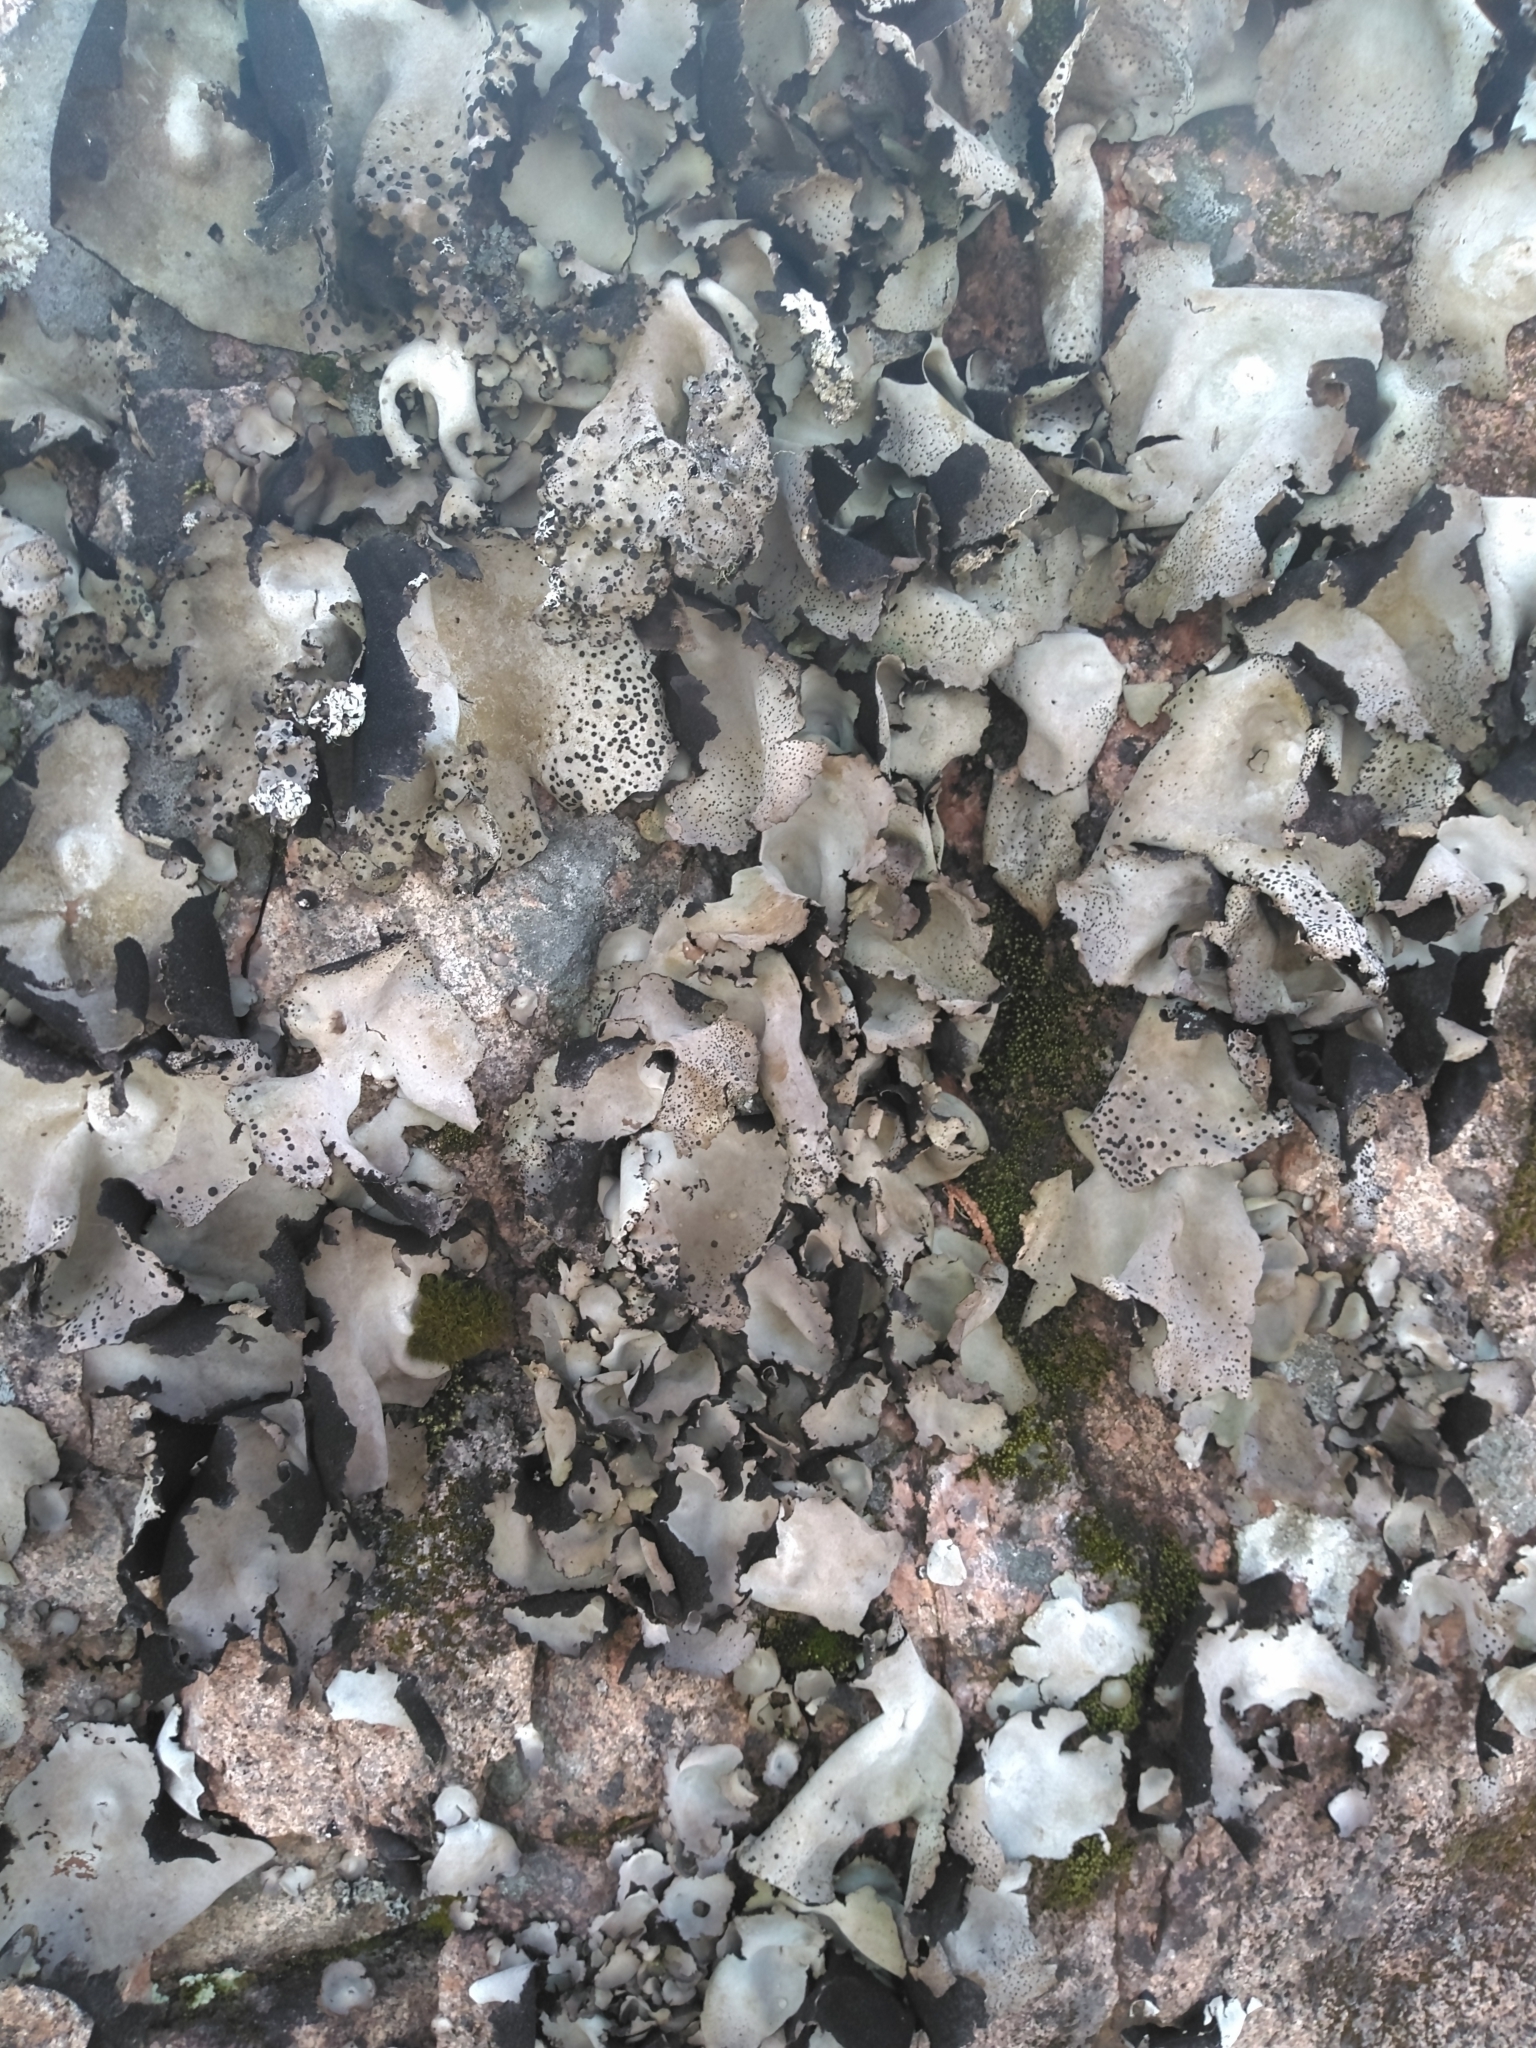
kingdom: Fungi
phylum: Ascomycota
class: Lecanoromycetes
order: Umbilicariales
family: Umbilicariaceae
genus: Umbilicaria
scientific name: Umbilicaria americana
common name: Frosted rock tripe
